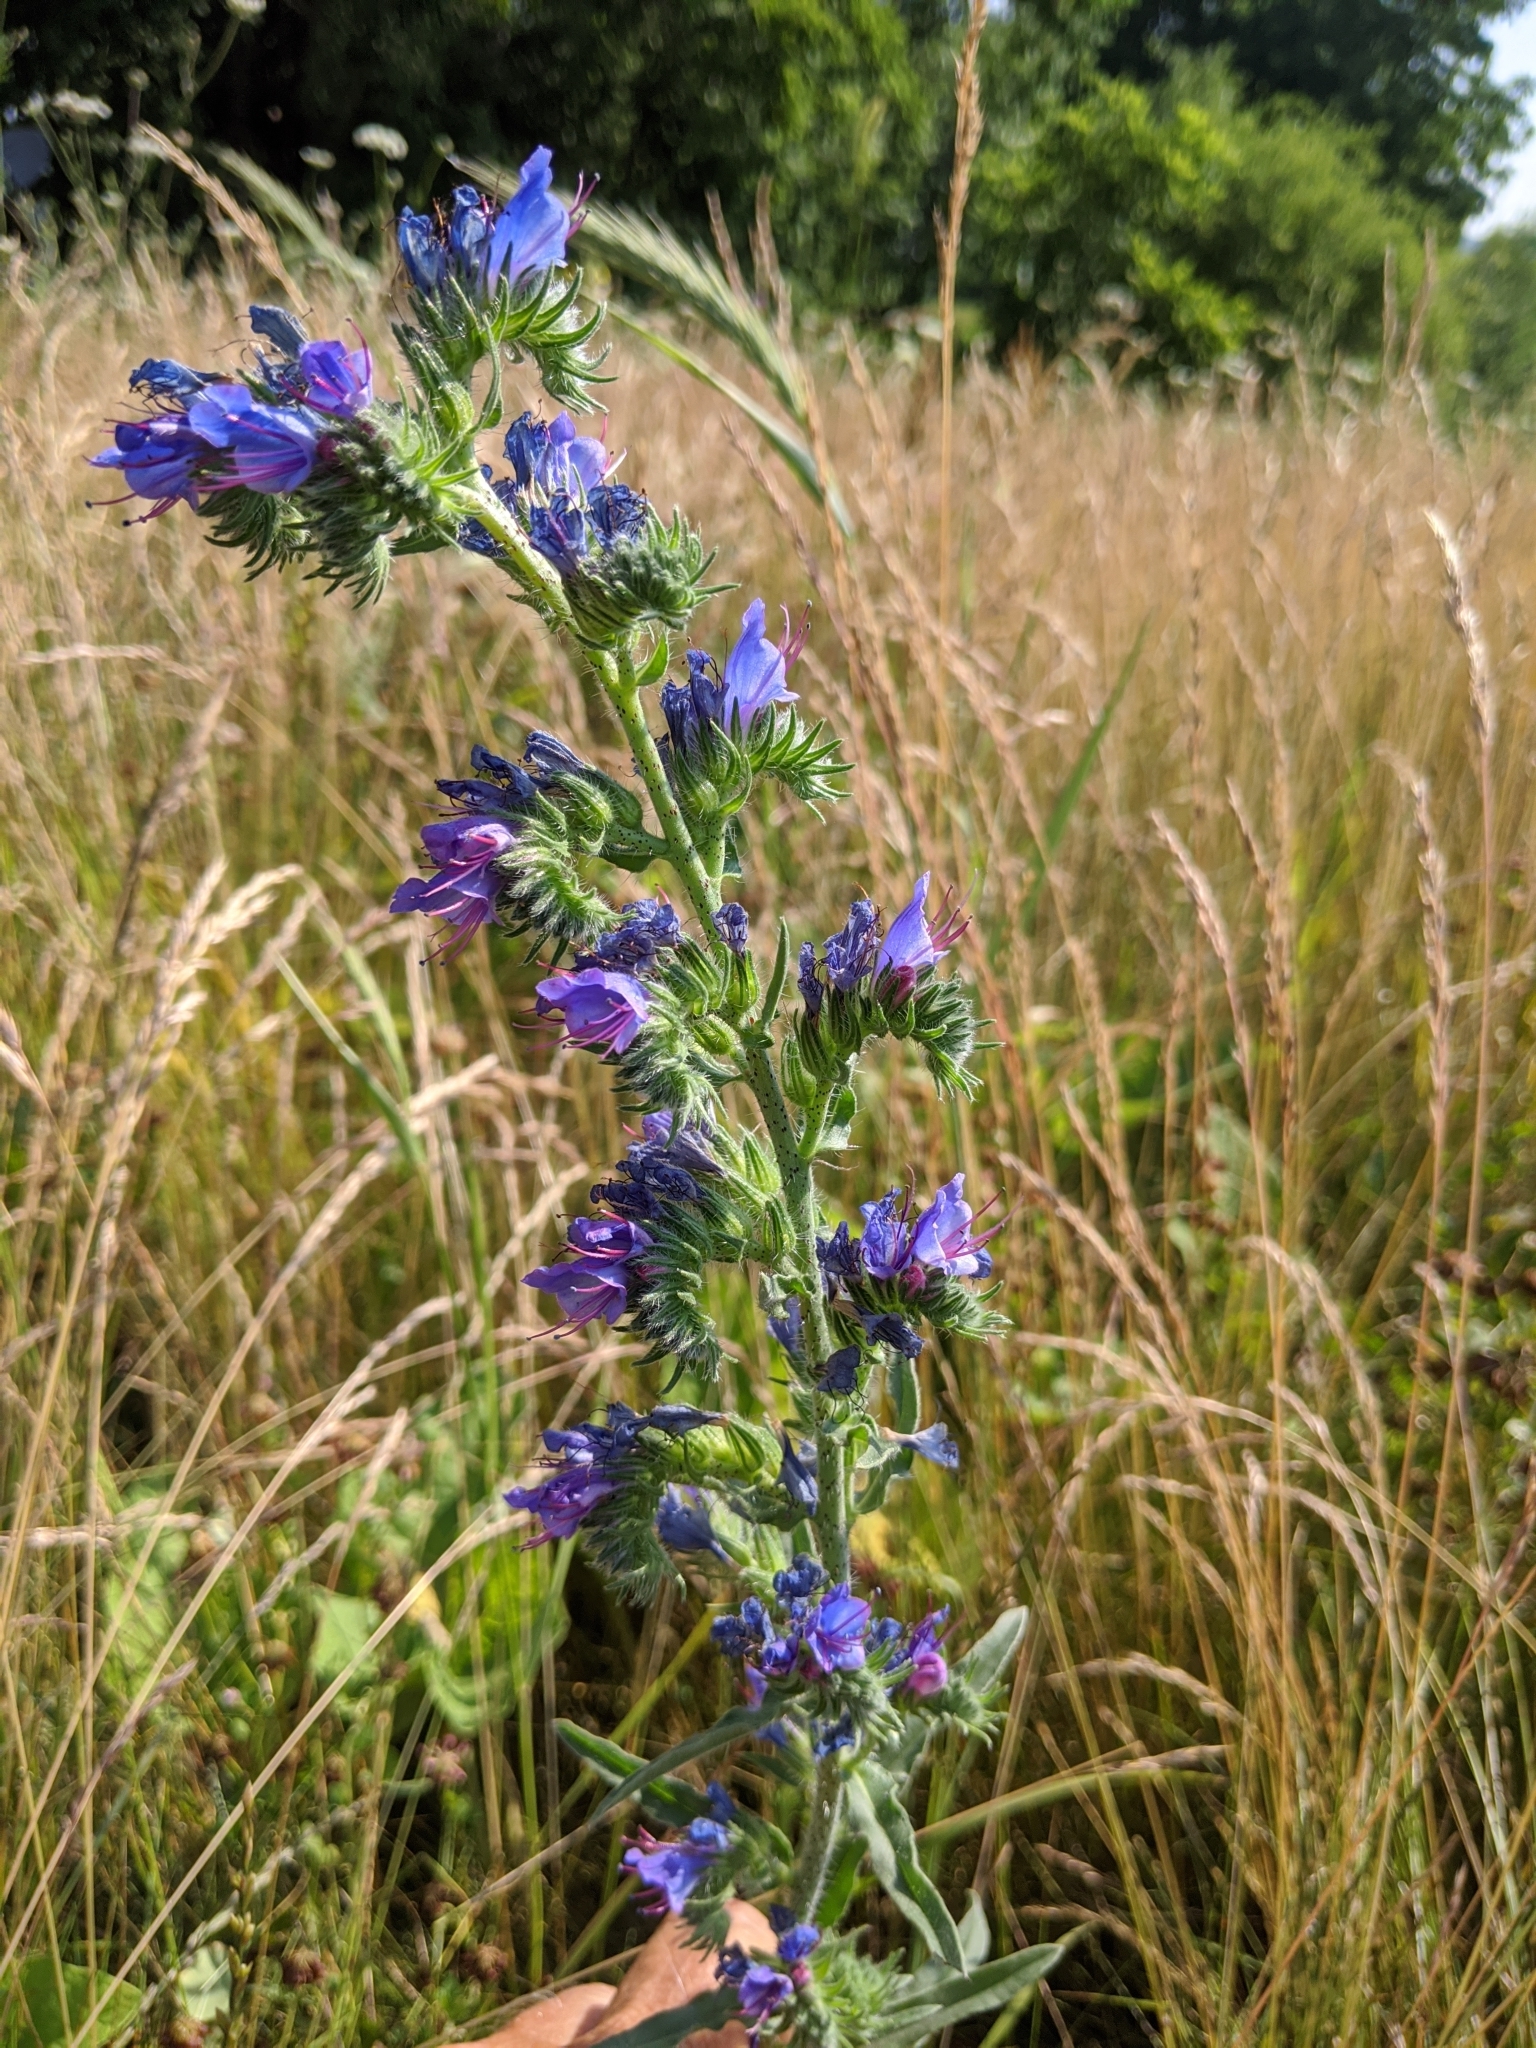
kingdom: Plantae
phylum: Tracheophyta
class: Magnoliopsida
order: Boraginales
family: Boraginaceae
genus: Echium
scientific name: Echium vulgare
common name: Common viper's bugloss
